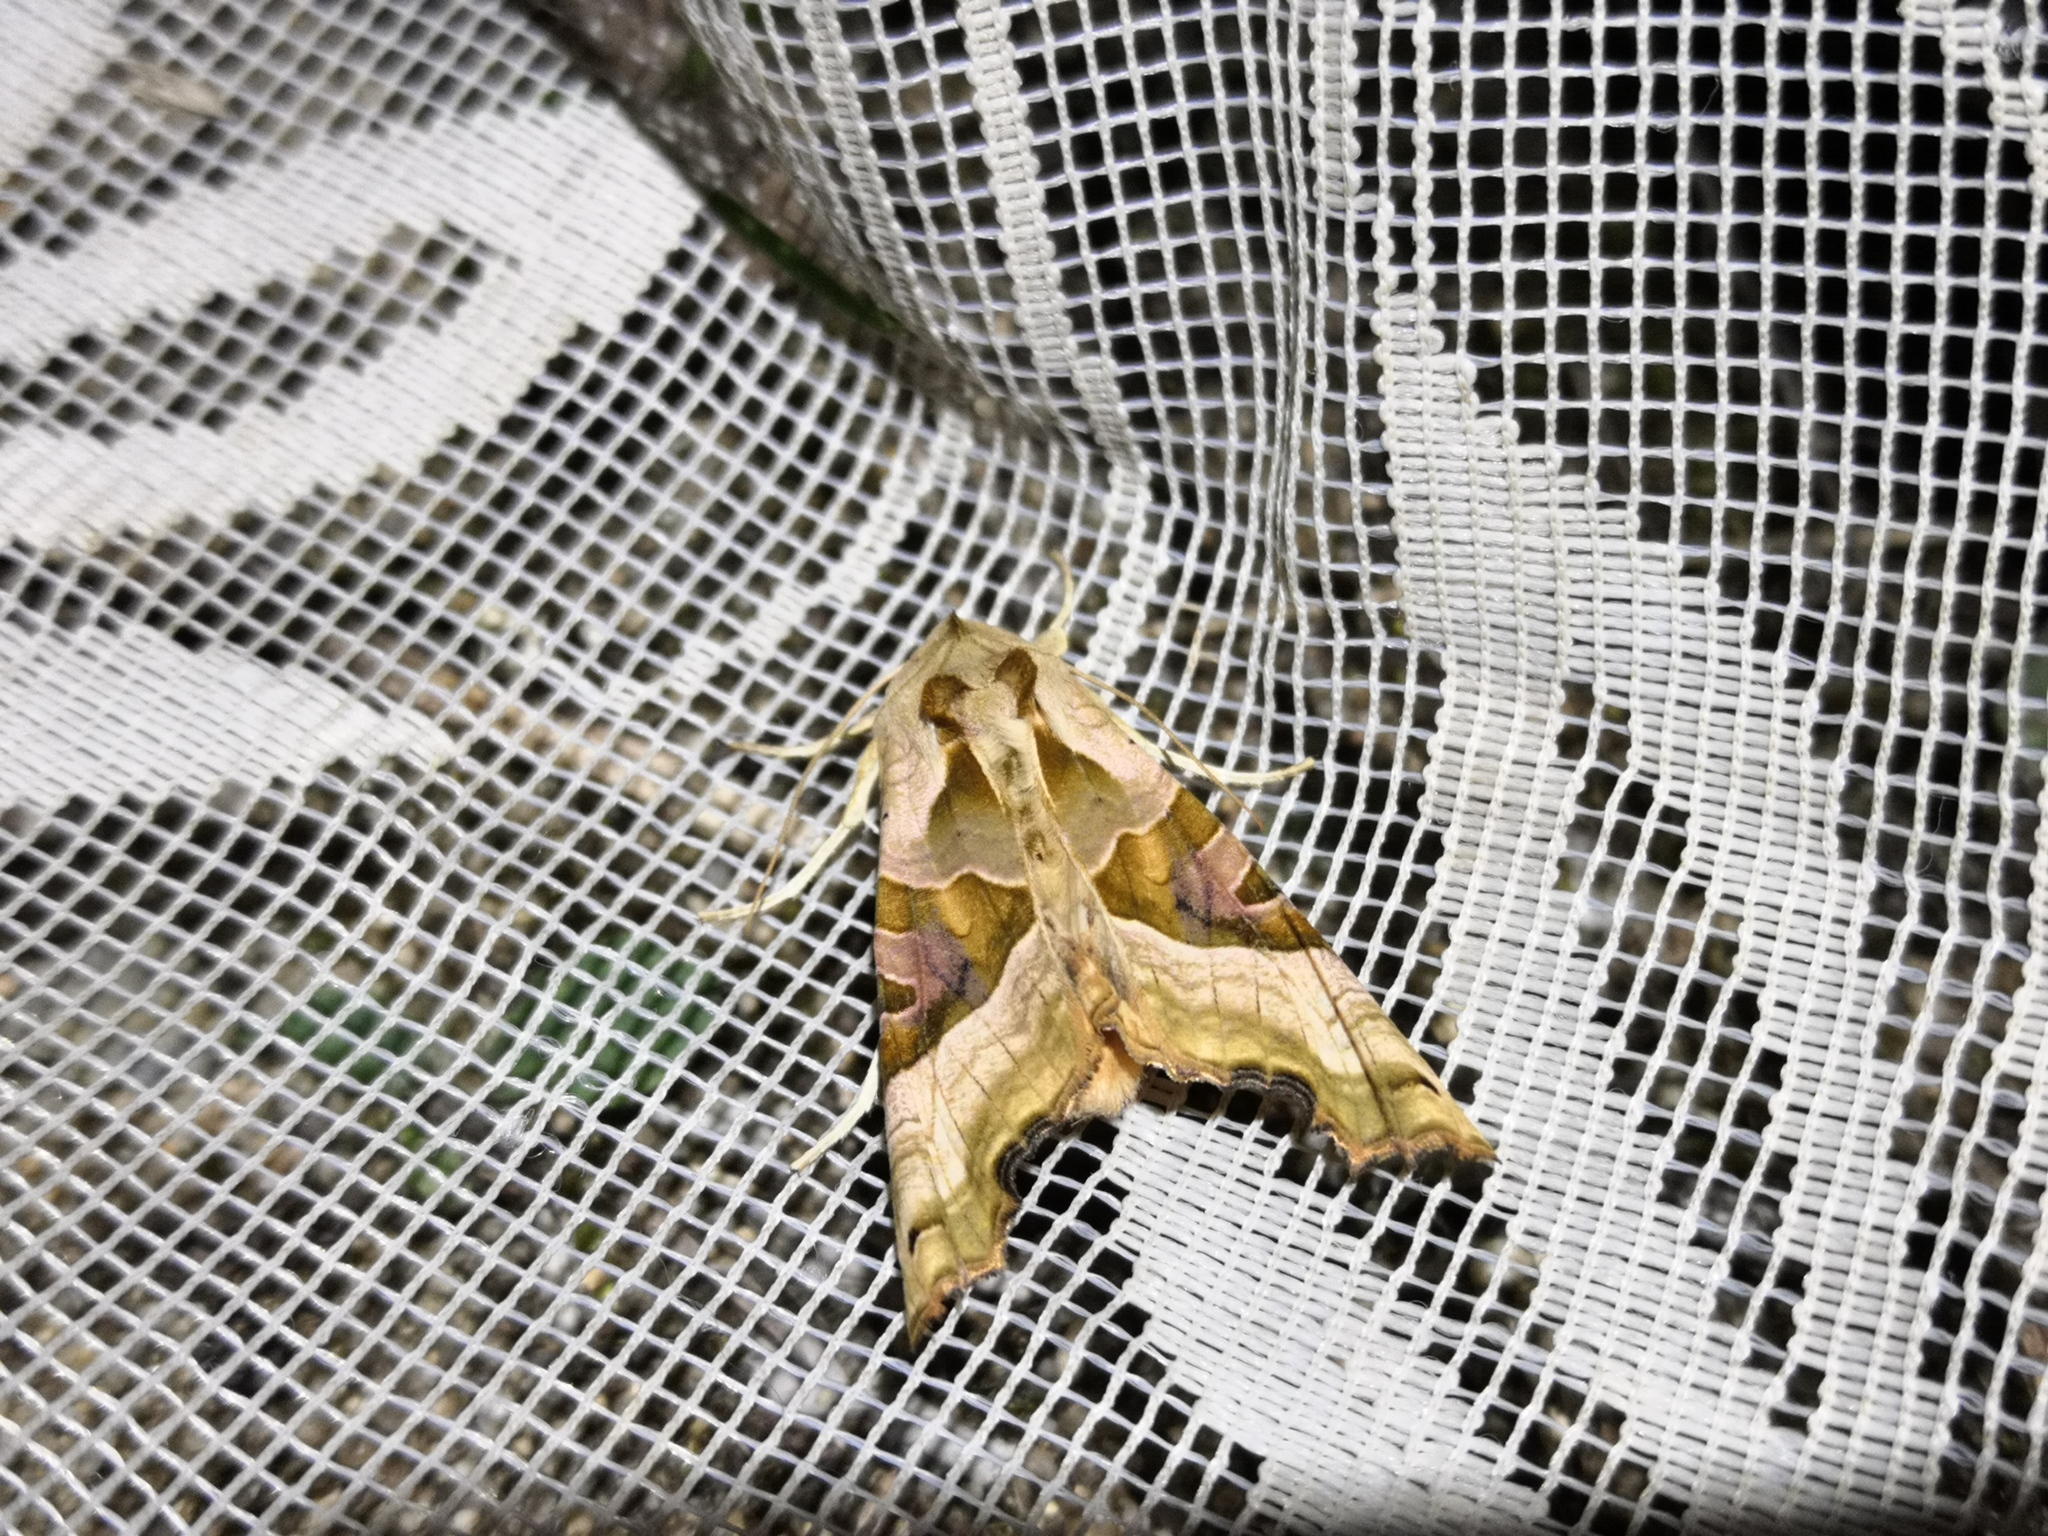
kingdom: Animalia
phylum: Arthropoda
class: Insecta
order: Lepidoptera
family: Noctuidae
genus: Phlogophora
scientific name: Phlogophora meticulosa
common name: Angle shades
